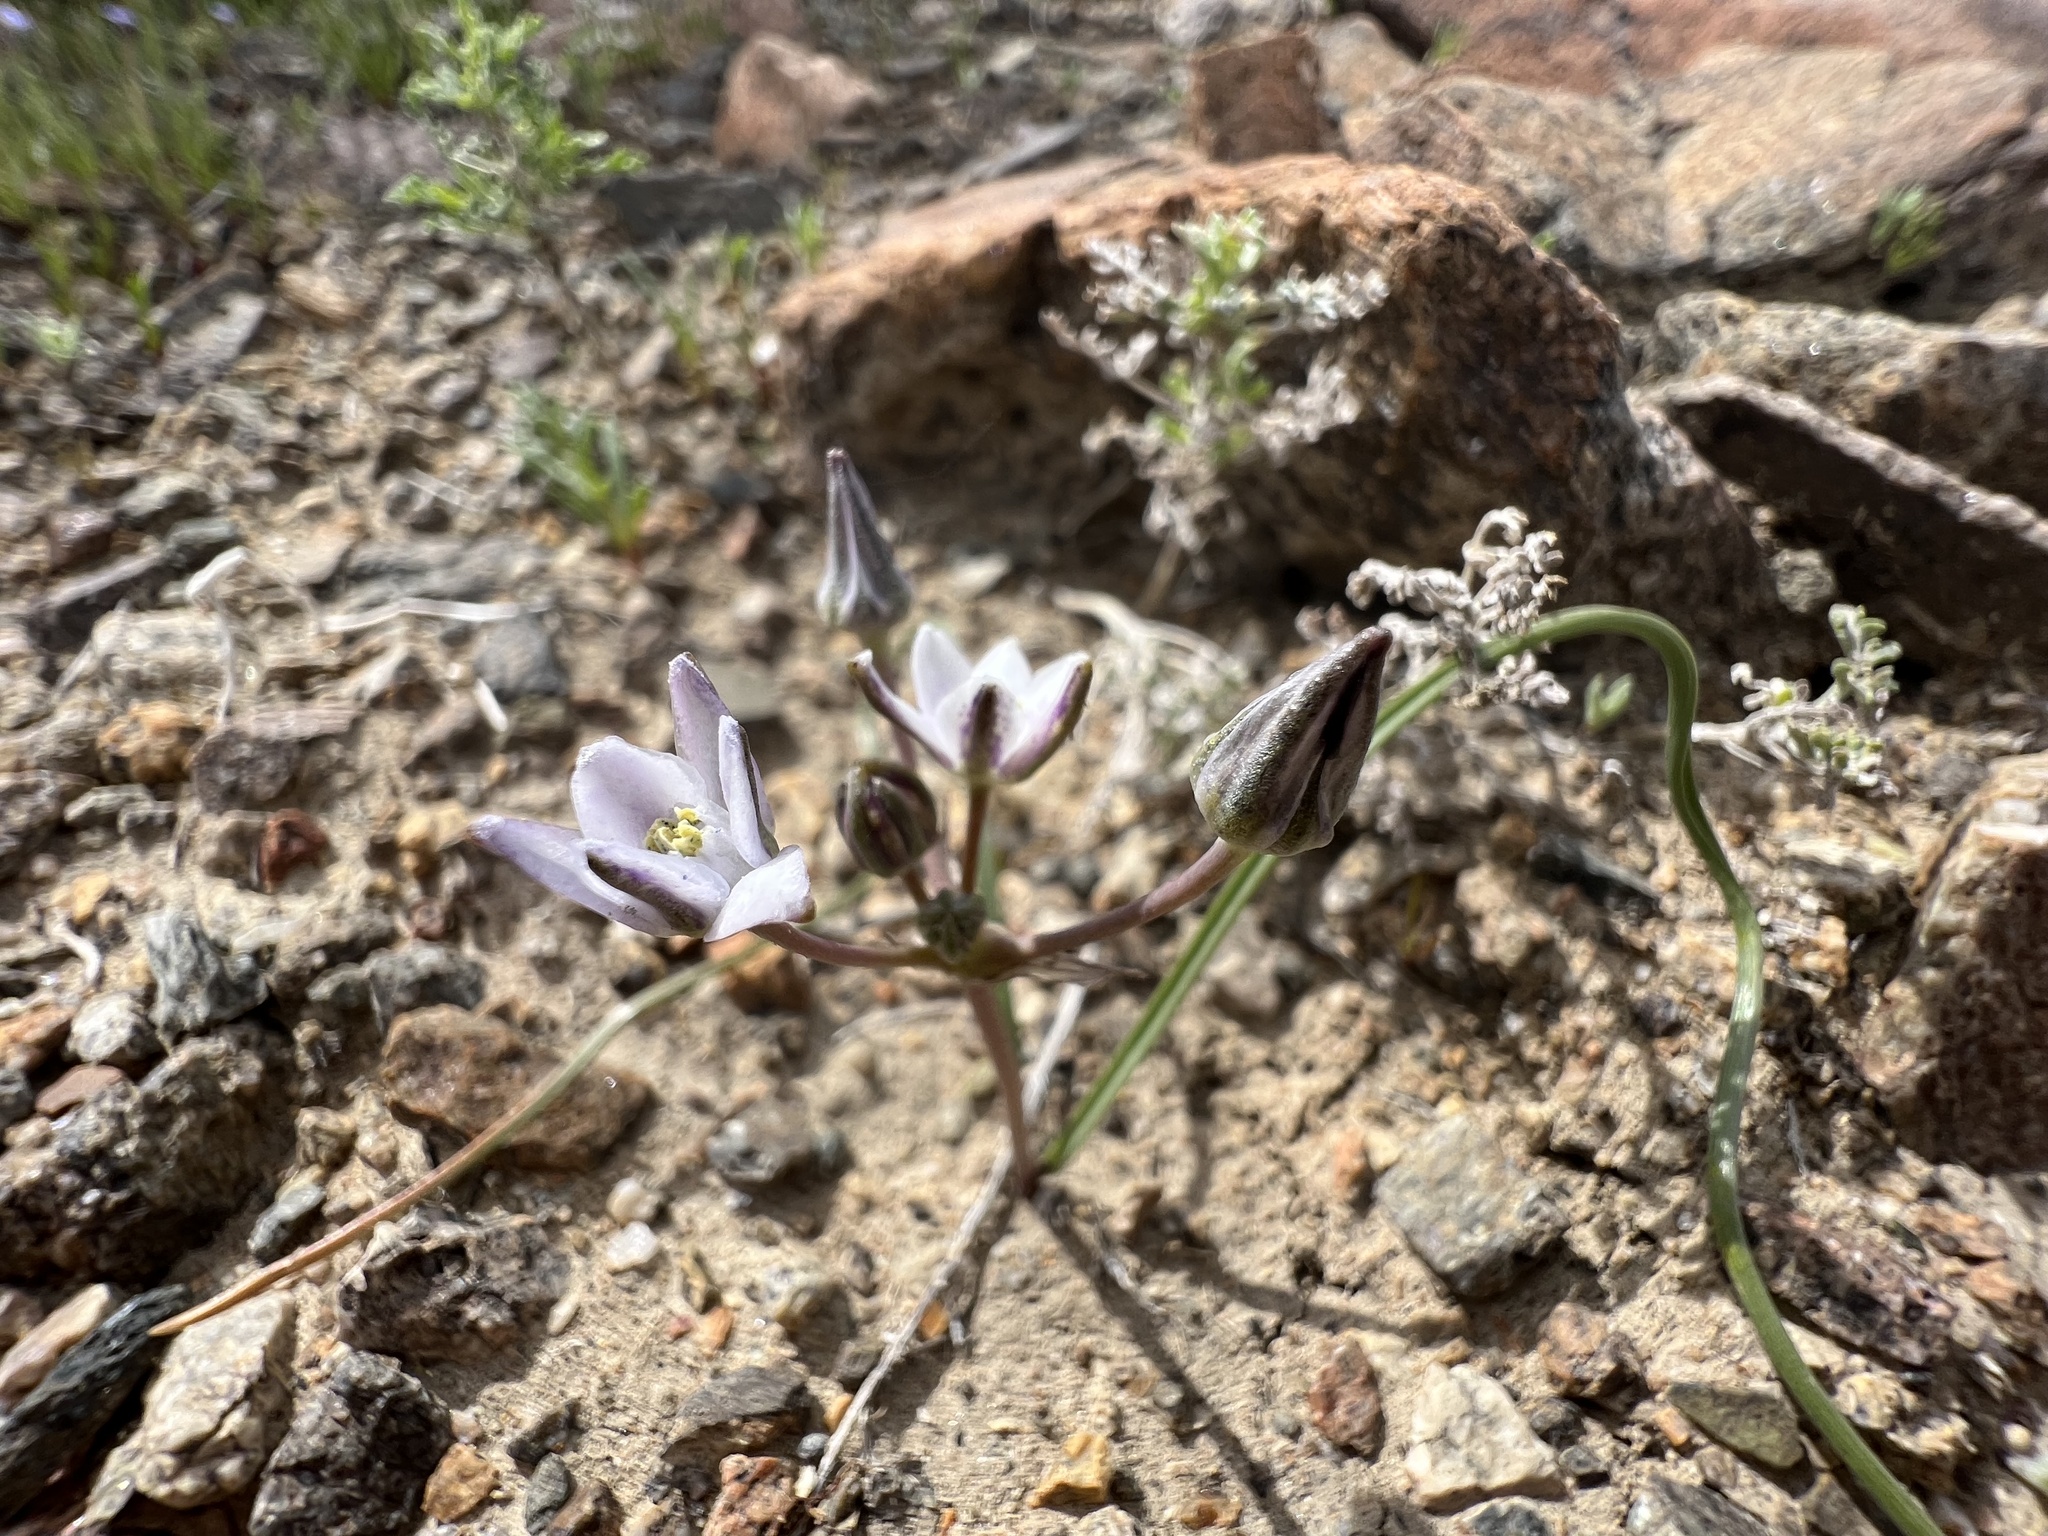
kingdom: Plantae
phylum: Tracheophyta
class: Liliopsida
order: Asparagales
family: Asparagaceae
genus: Muilla
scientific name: Muilla coronata
